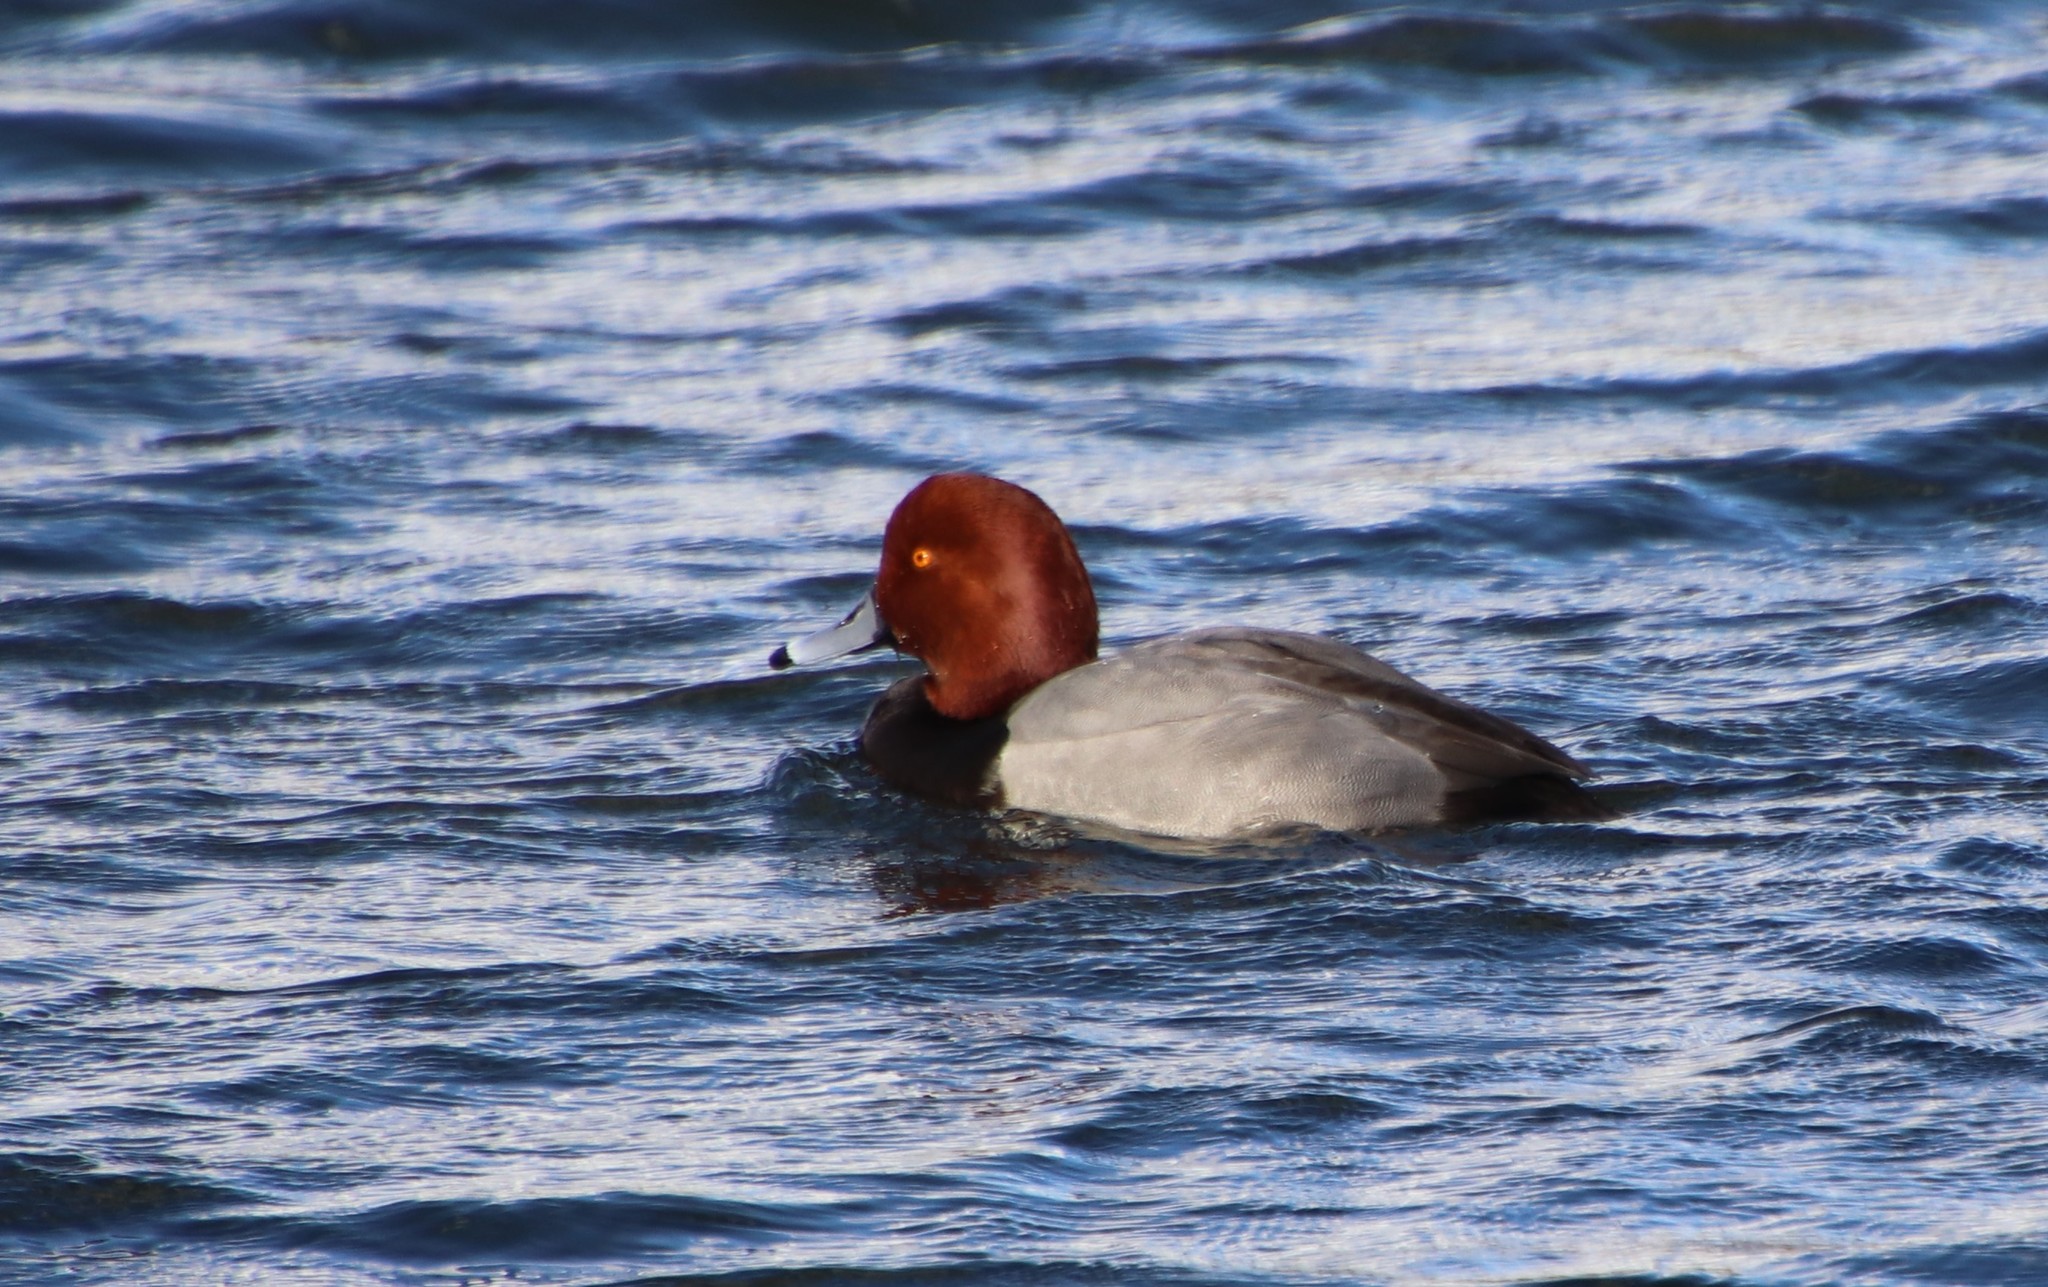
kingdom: Animalia
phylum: Chordata
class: Aves
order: Anseriformes
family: Anatidae
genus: Aythya
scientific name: Aythya americana
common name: Redhead
